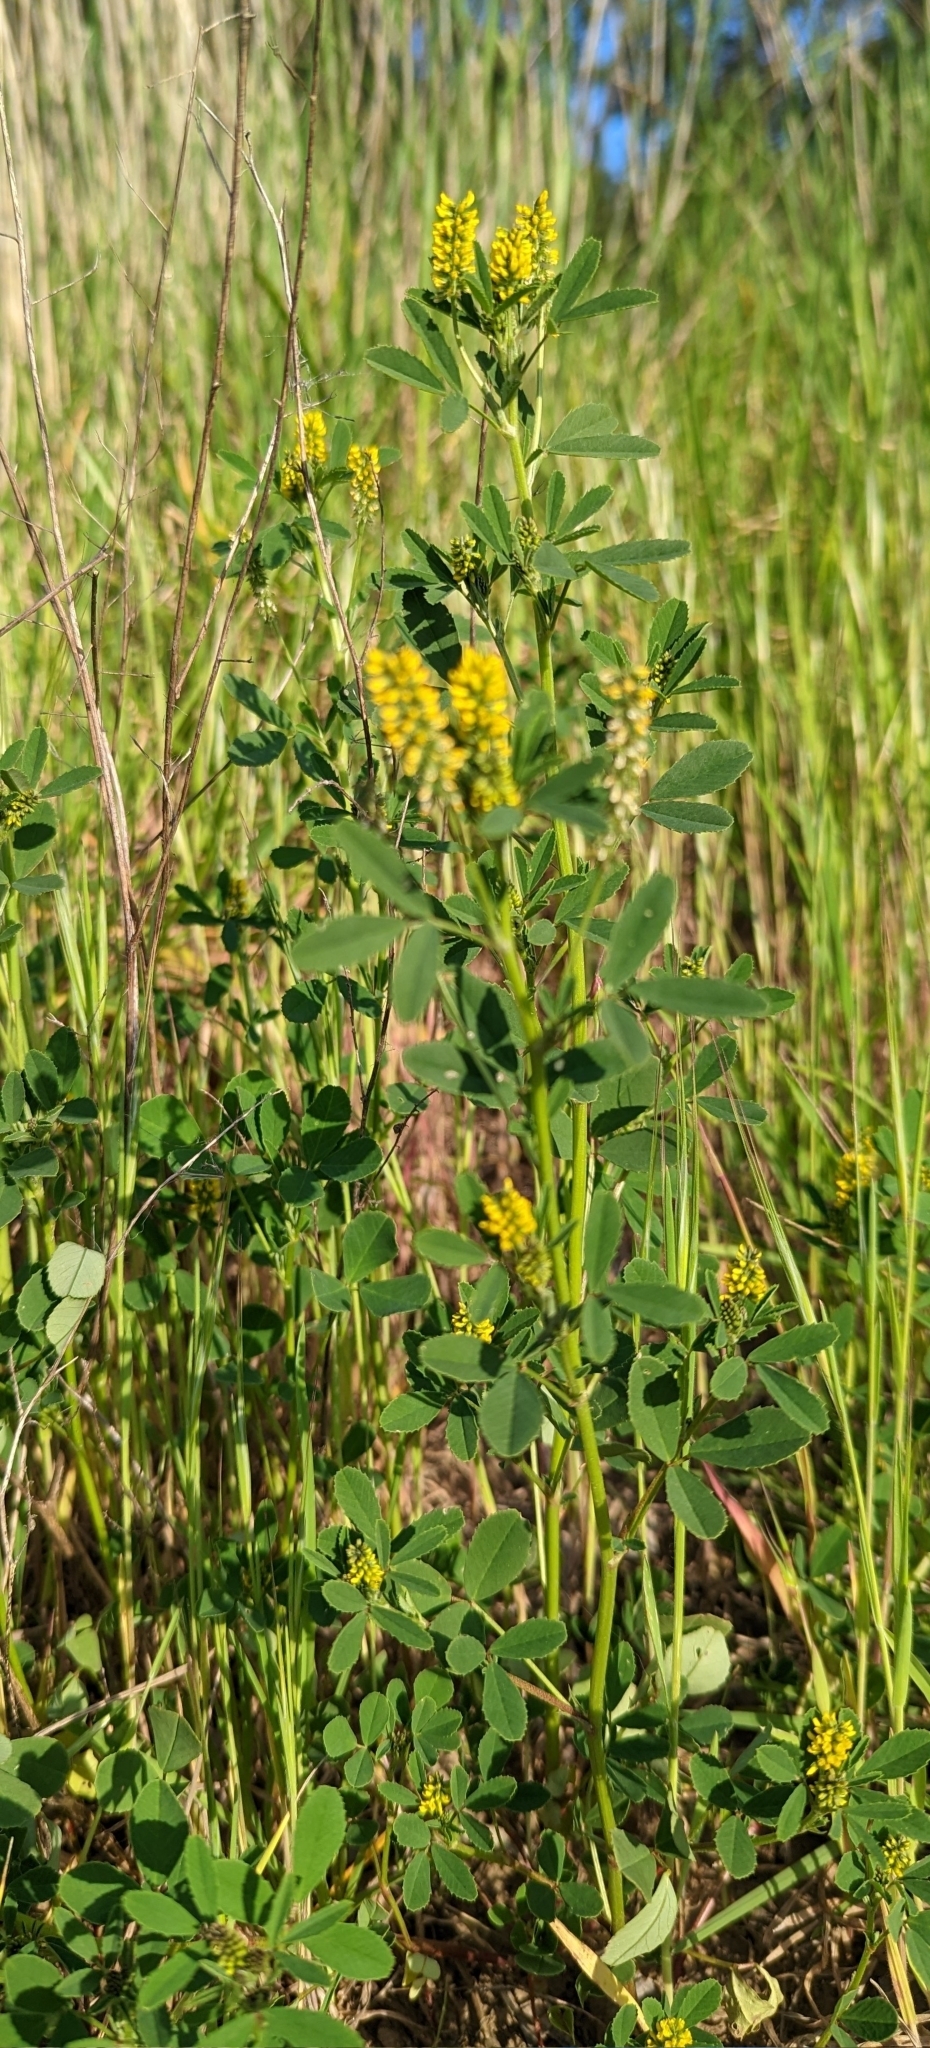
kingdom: Plantae
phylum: Tracheophyta
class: Magnoliopsida
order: Fabales
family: Fabaceae
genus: Melilotus
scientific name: Melilotus indicus
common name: Small melilot
